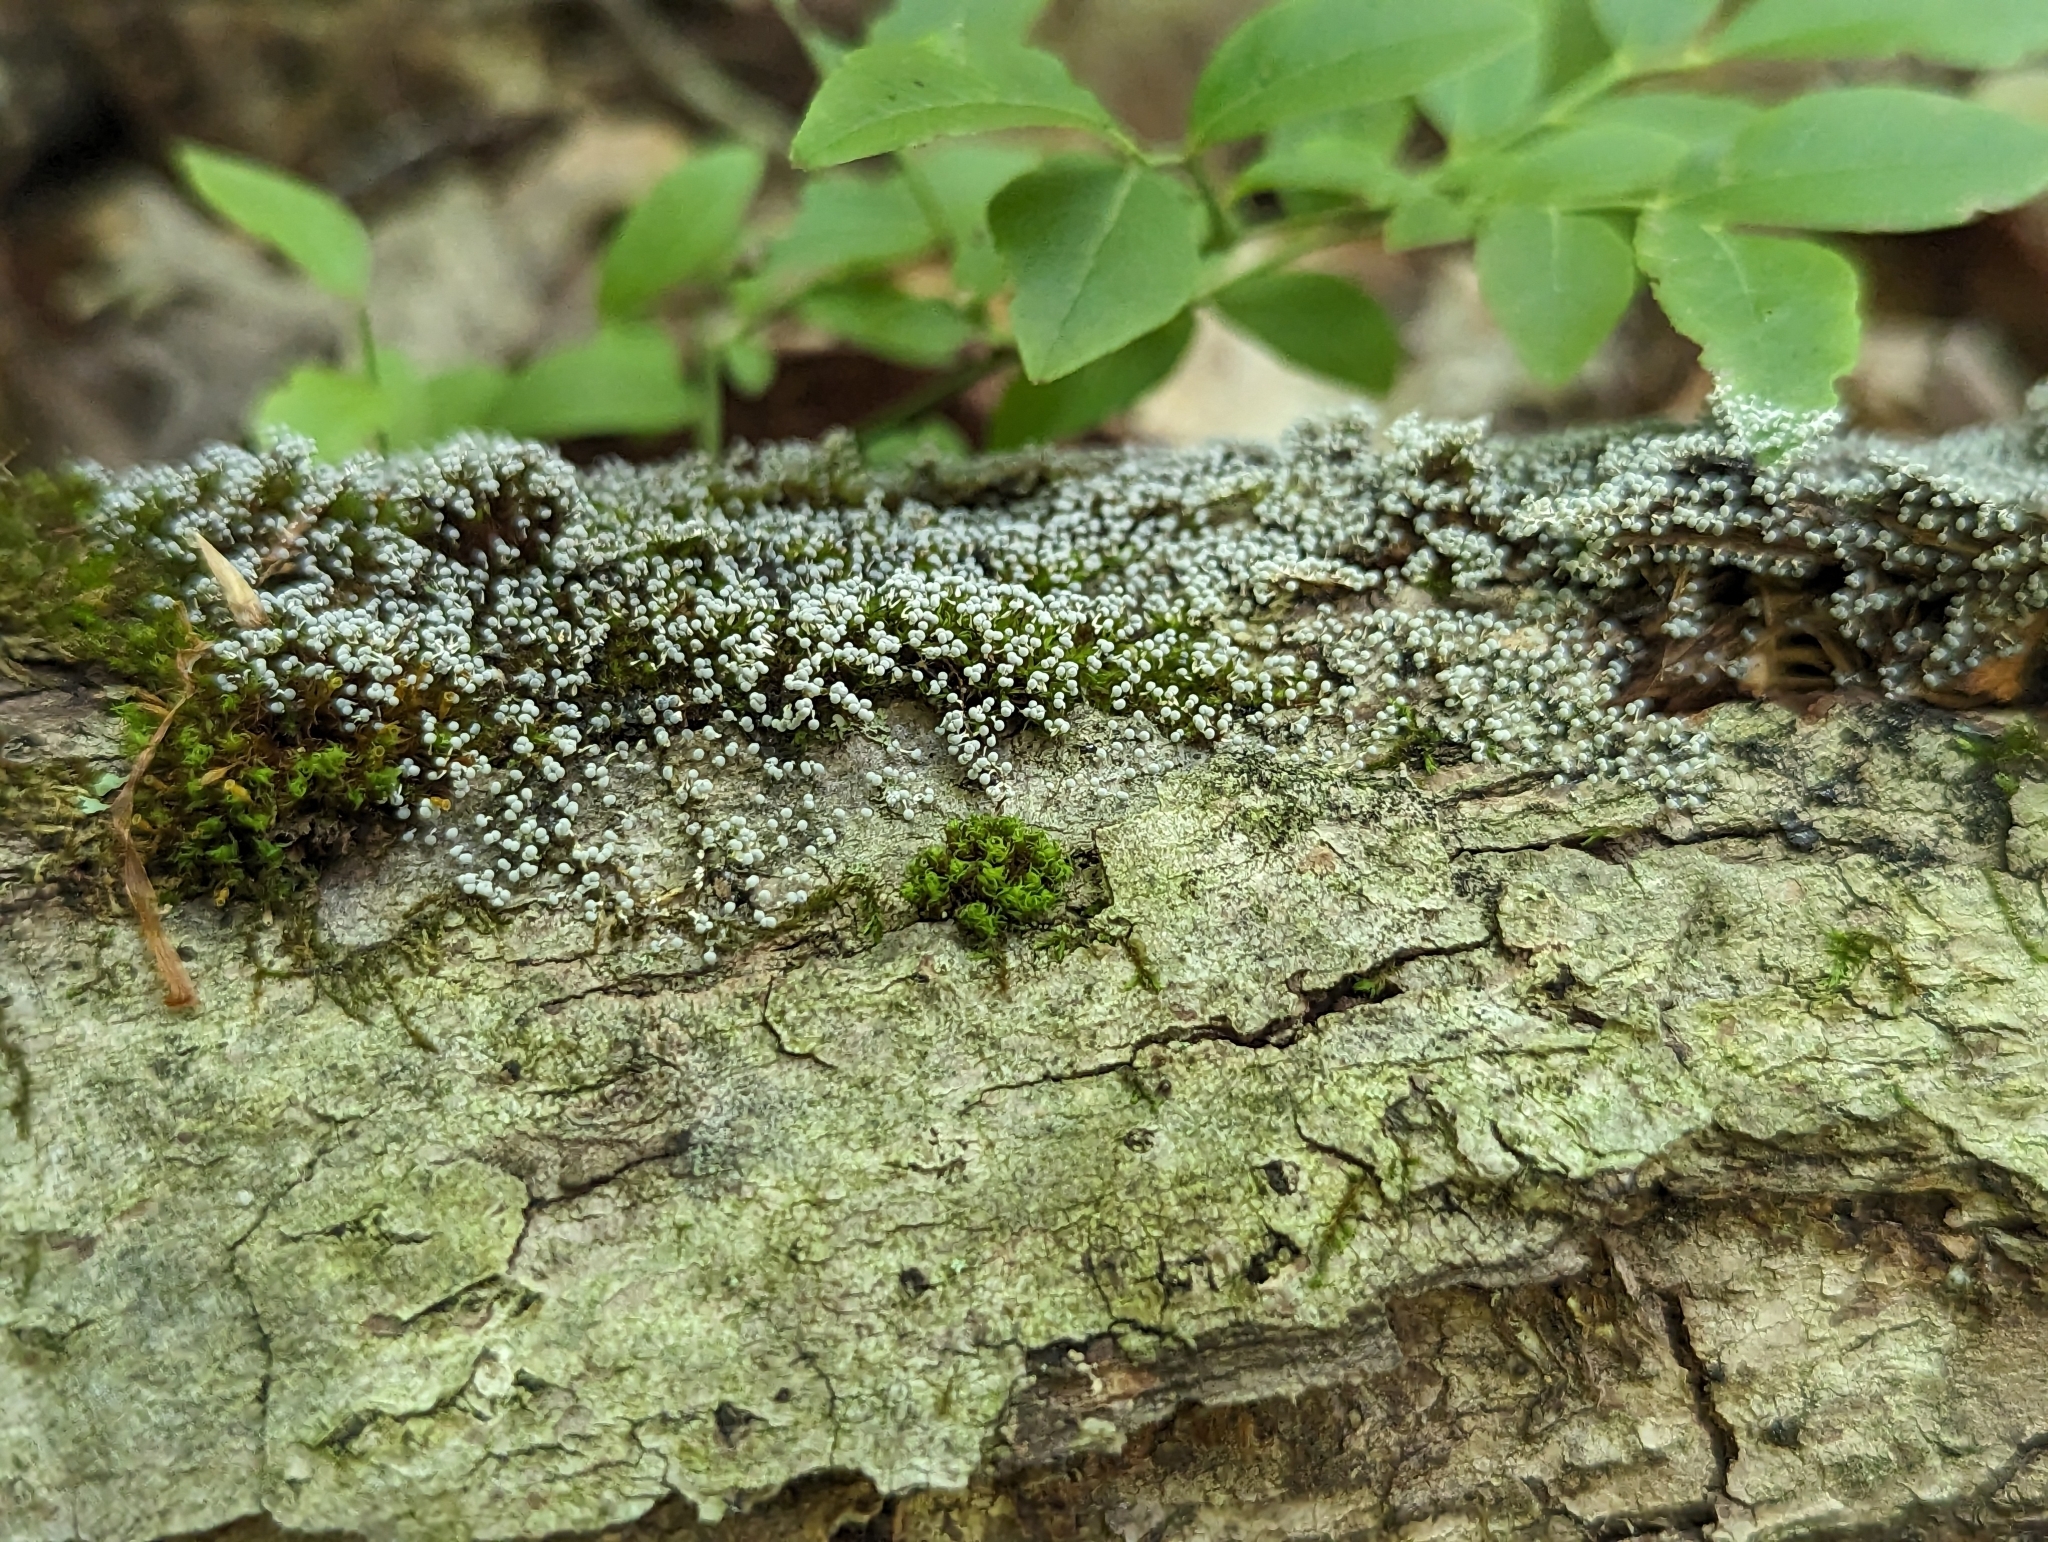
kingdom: Fungi
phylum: Basidiomycota
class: Atractiellomycetes
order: Atractiellales
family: Phleogenaceae
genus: Phleogena
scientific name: Phleogena faginea
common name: Fenugreek stalkball
